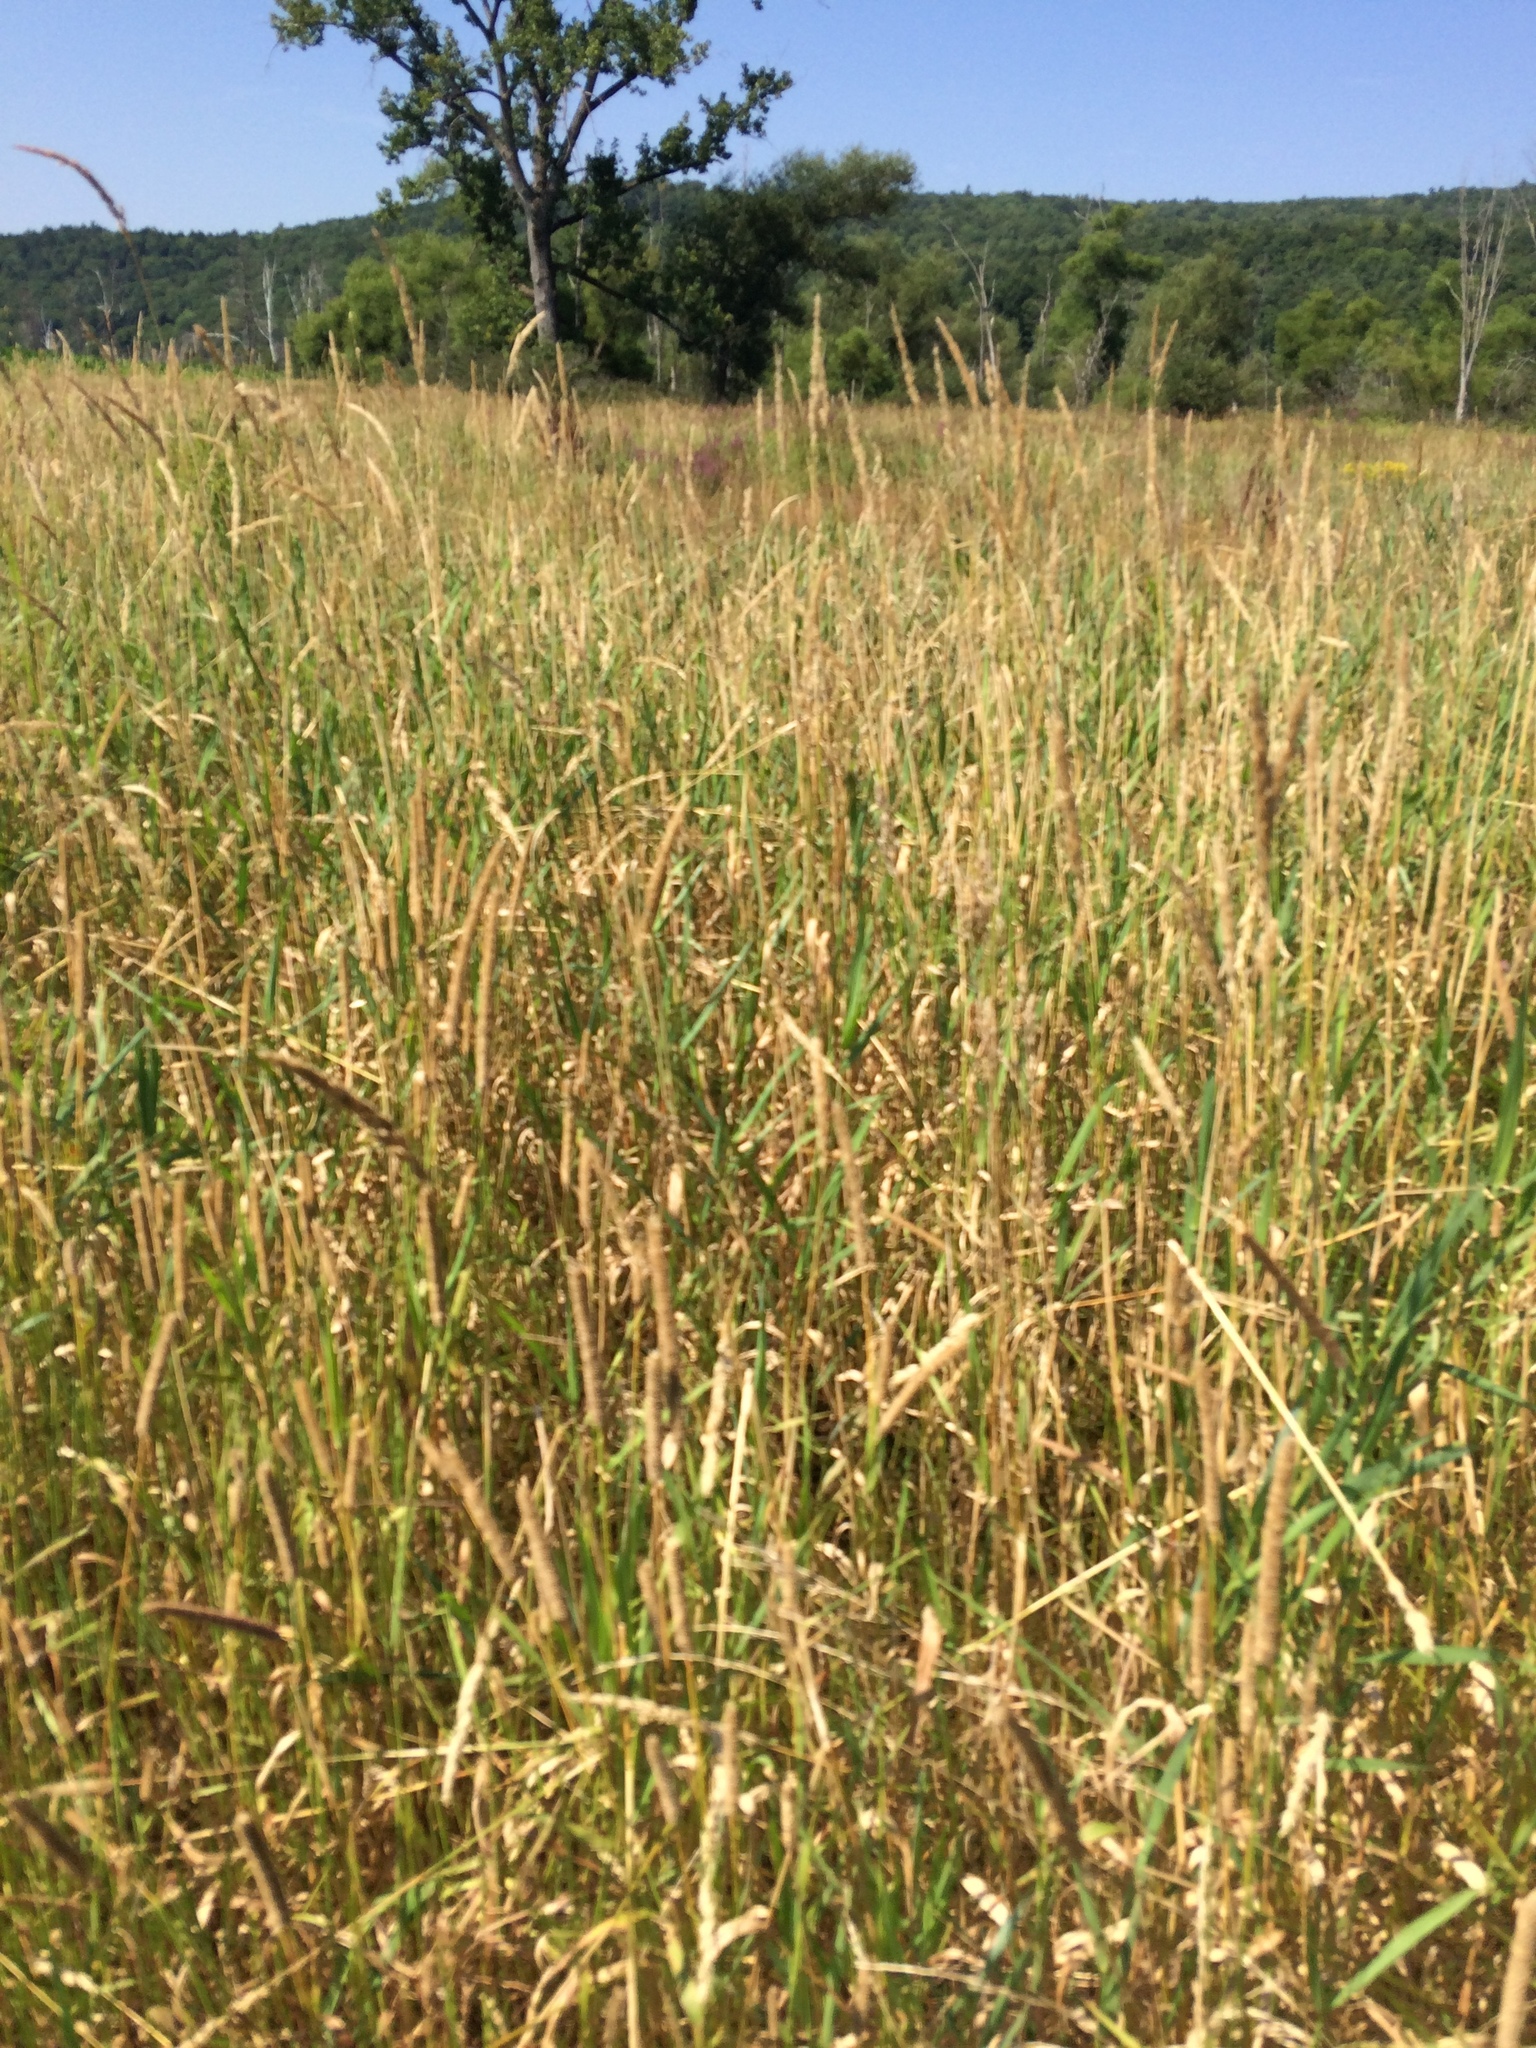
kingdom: Plantae
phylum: Tracheophyta
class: Liliopsida
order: Poales
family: Poaceae
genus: Phalaris
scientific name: Phalaris arundinacea
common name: Reed canary-grass
